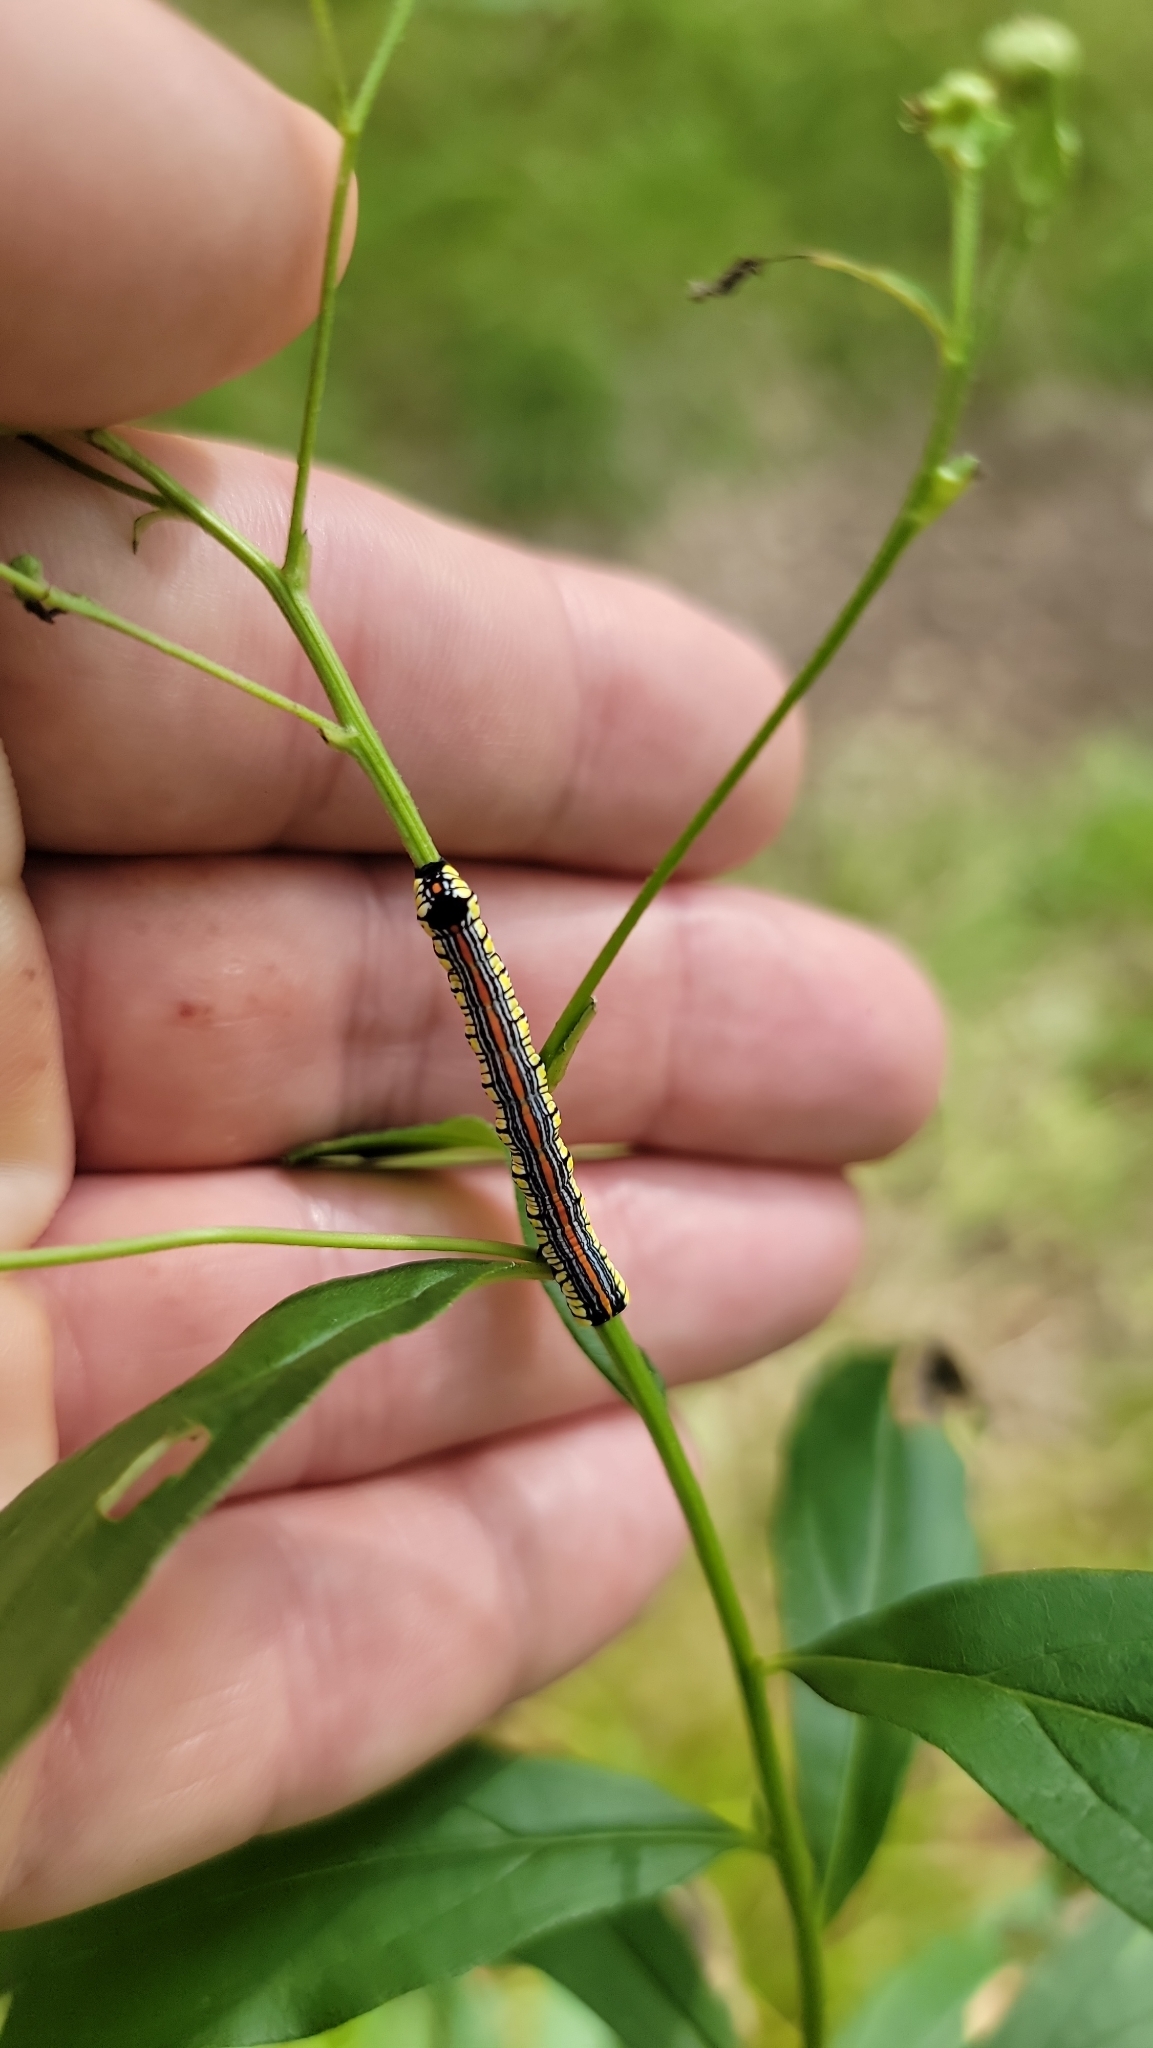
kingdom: Animalia
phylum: Arthropoda
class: Insecta
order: Lepidoptera
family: Noctuidae
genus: Cucullia
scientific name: Cucullia convexipennis
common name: Brown-hooded owlet
